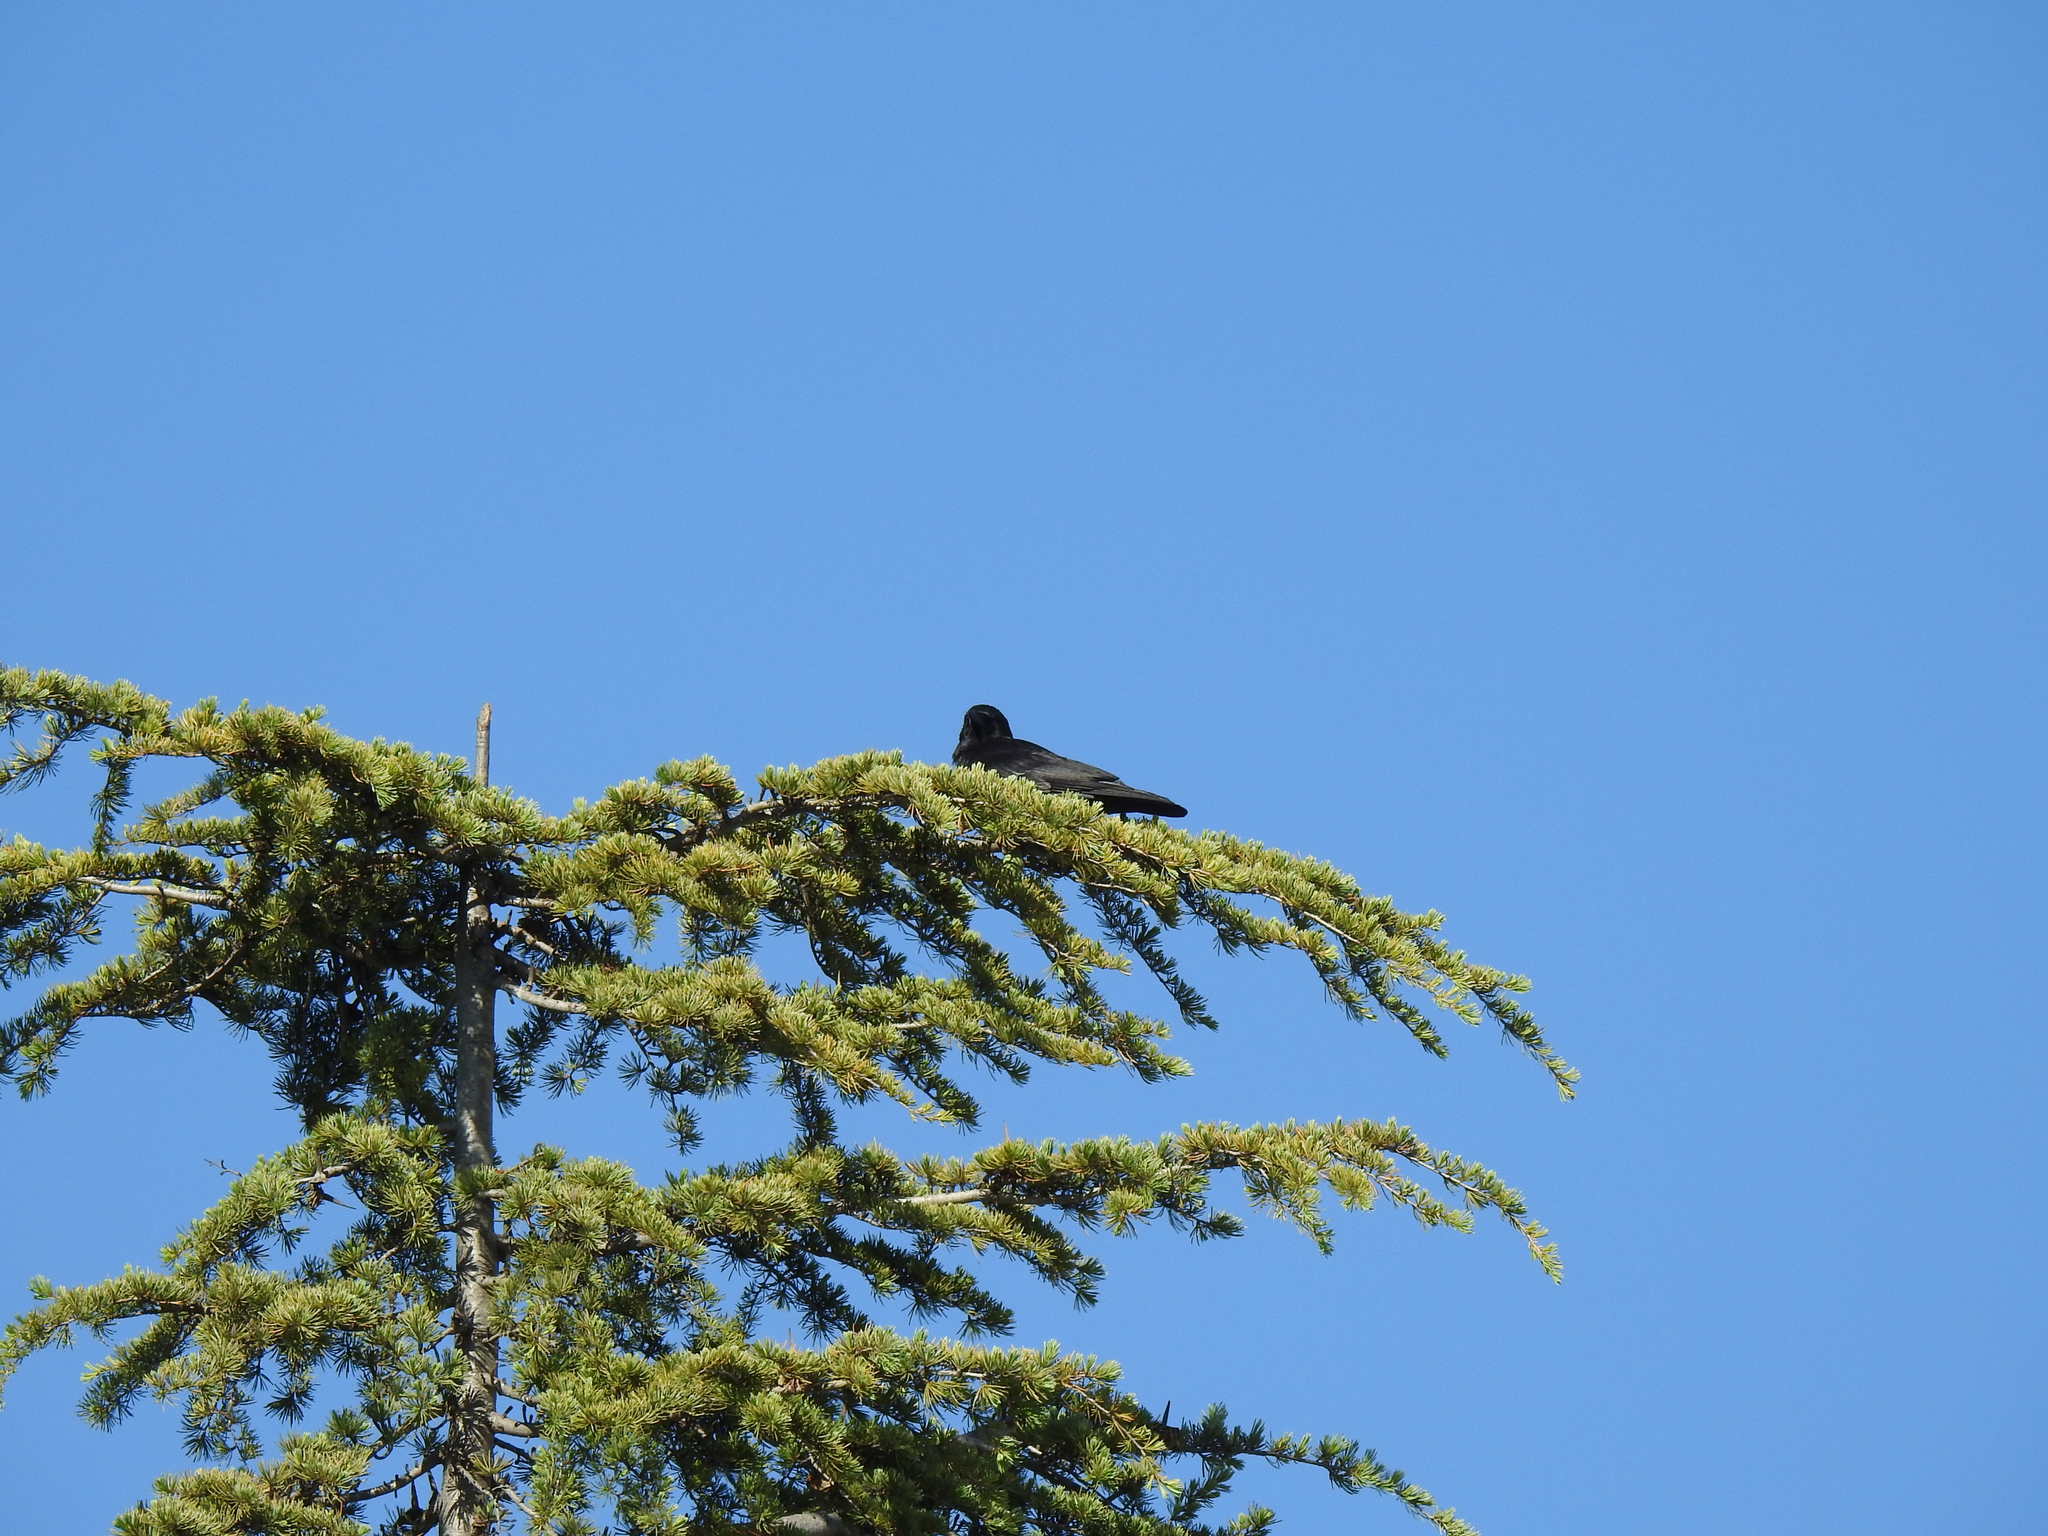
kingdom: Animalia
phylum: Chordata
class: Aves
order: Passeriformes
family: Corvidae
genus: Corvus
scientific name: Corvus brachyrhynchos
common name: American crow
